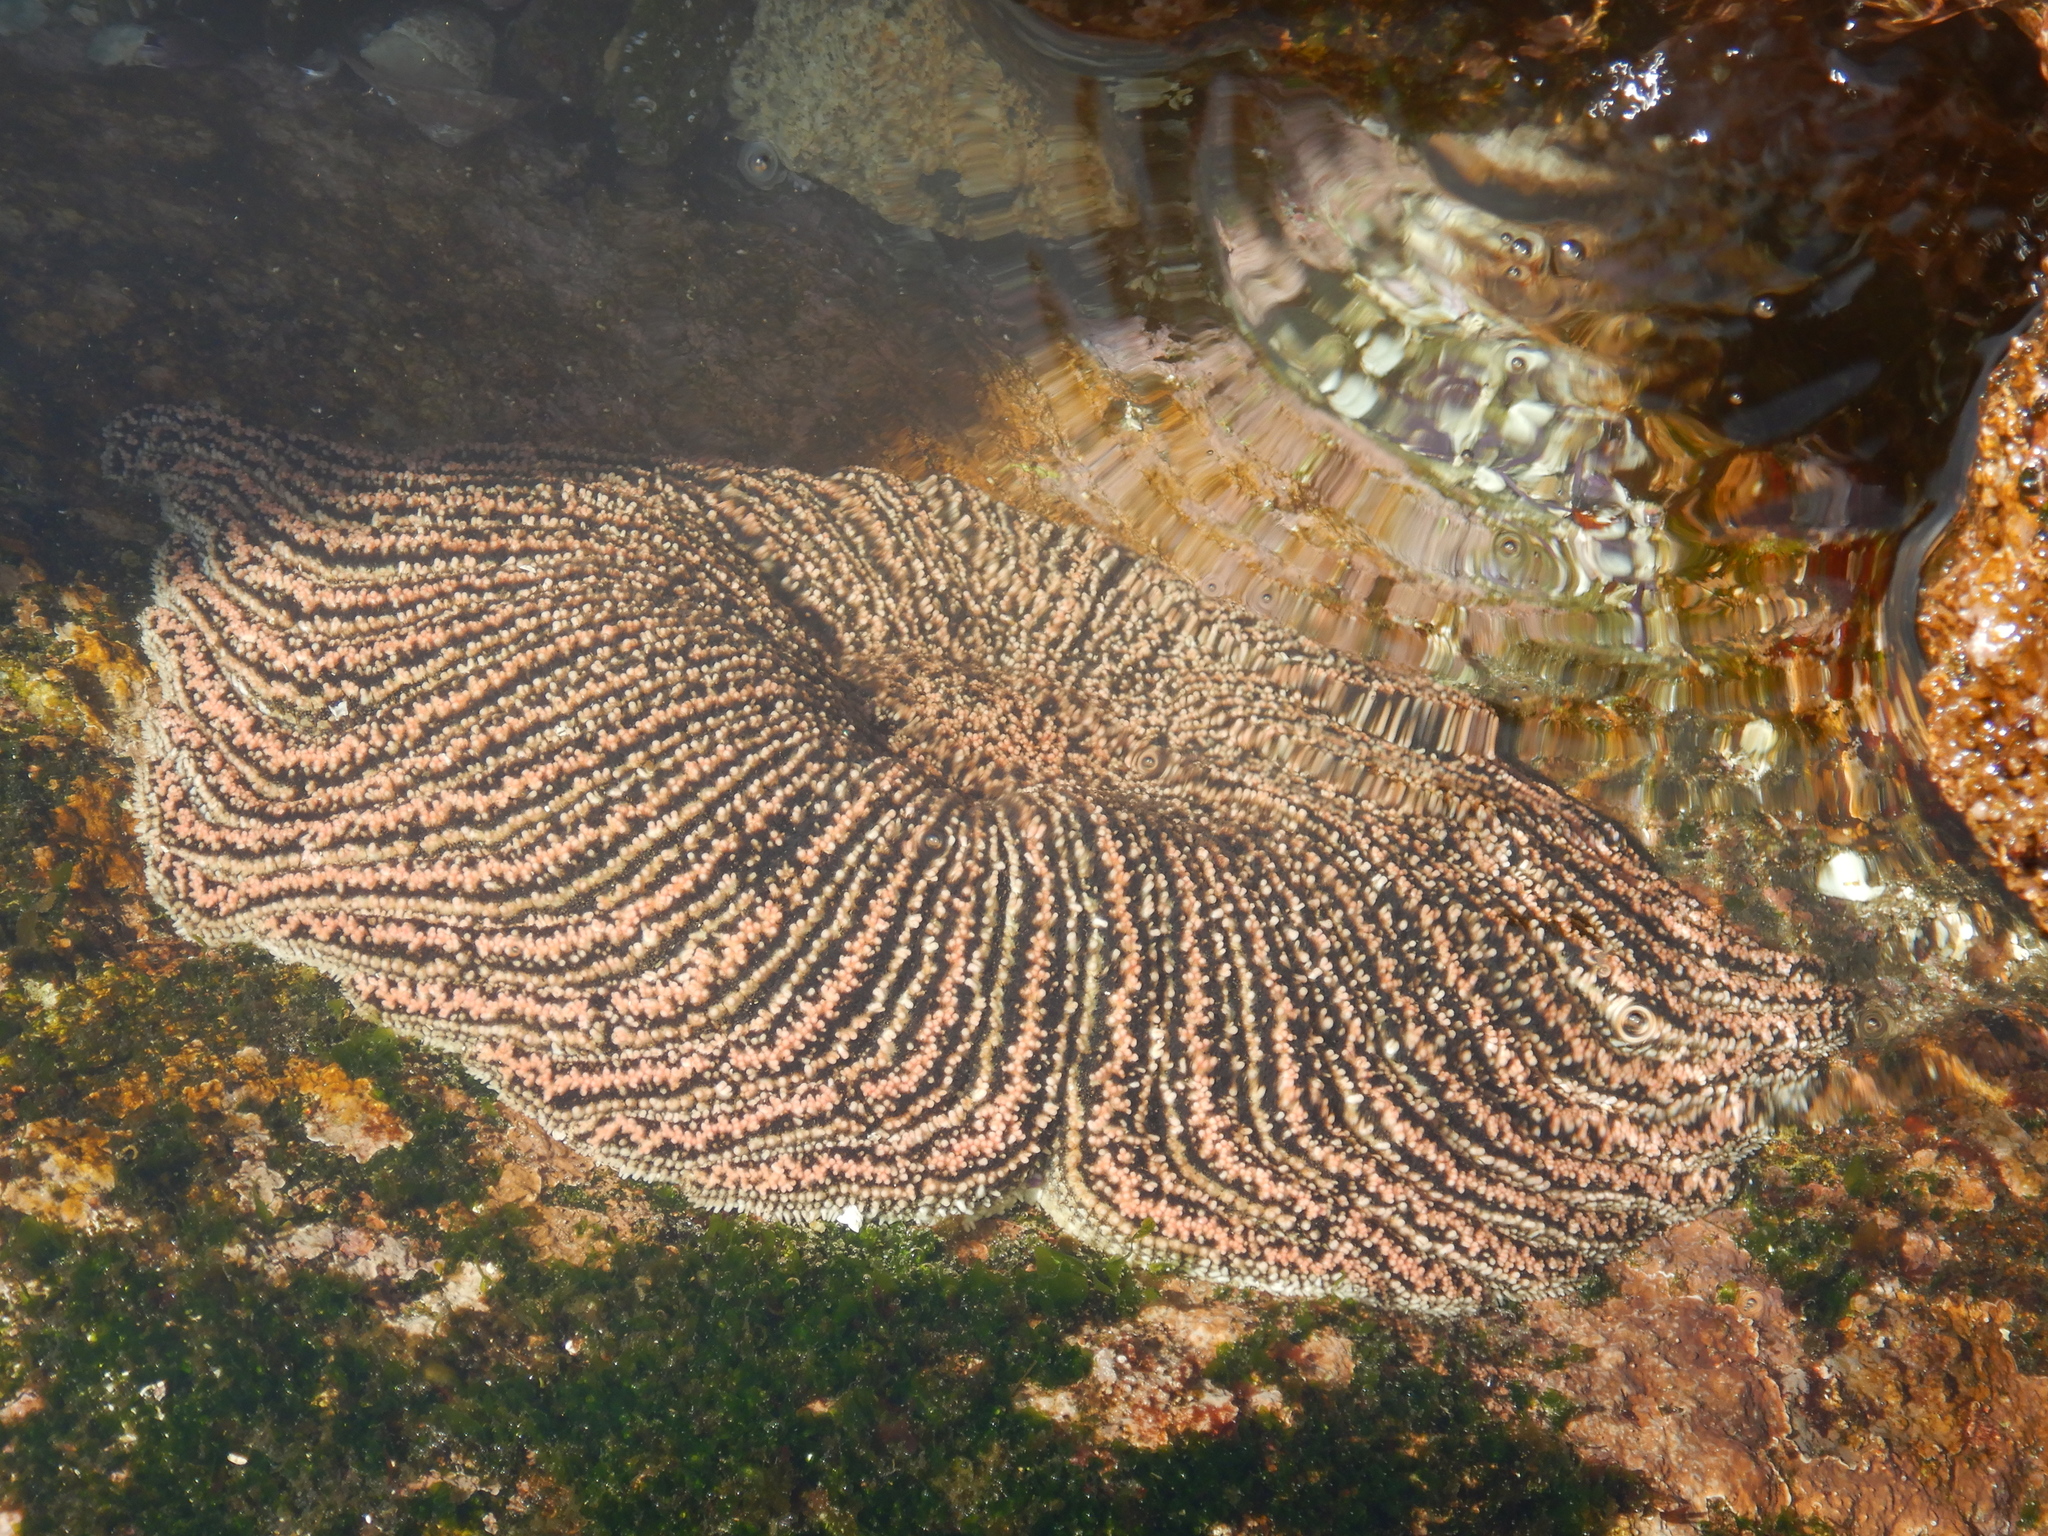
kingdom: Animalia
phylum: Echinodermata
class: Asteroidea
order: Forcipulatida
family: Heliasteridae
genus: Heliaster
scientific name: Heliaster helianthus
